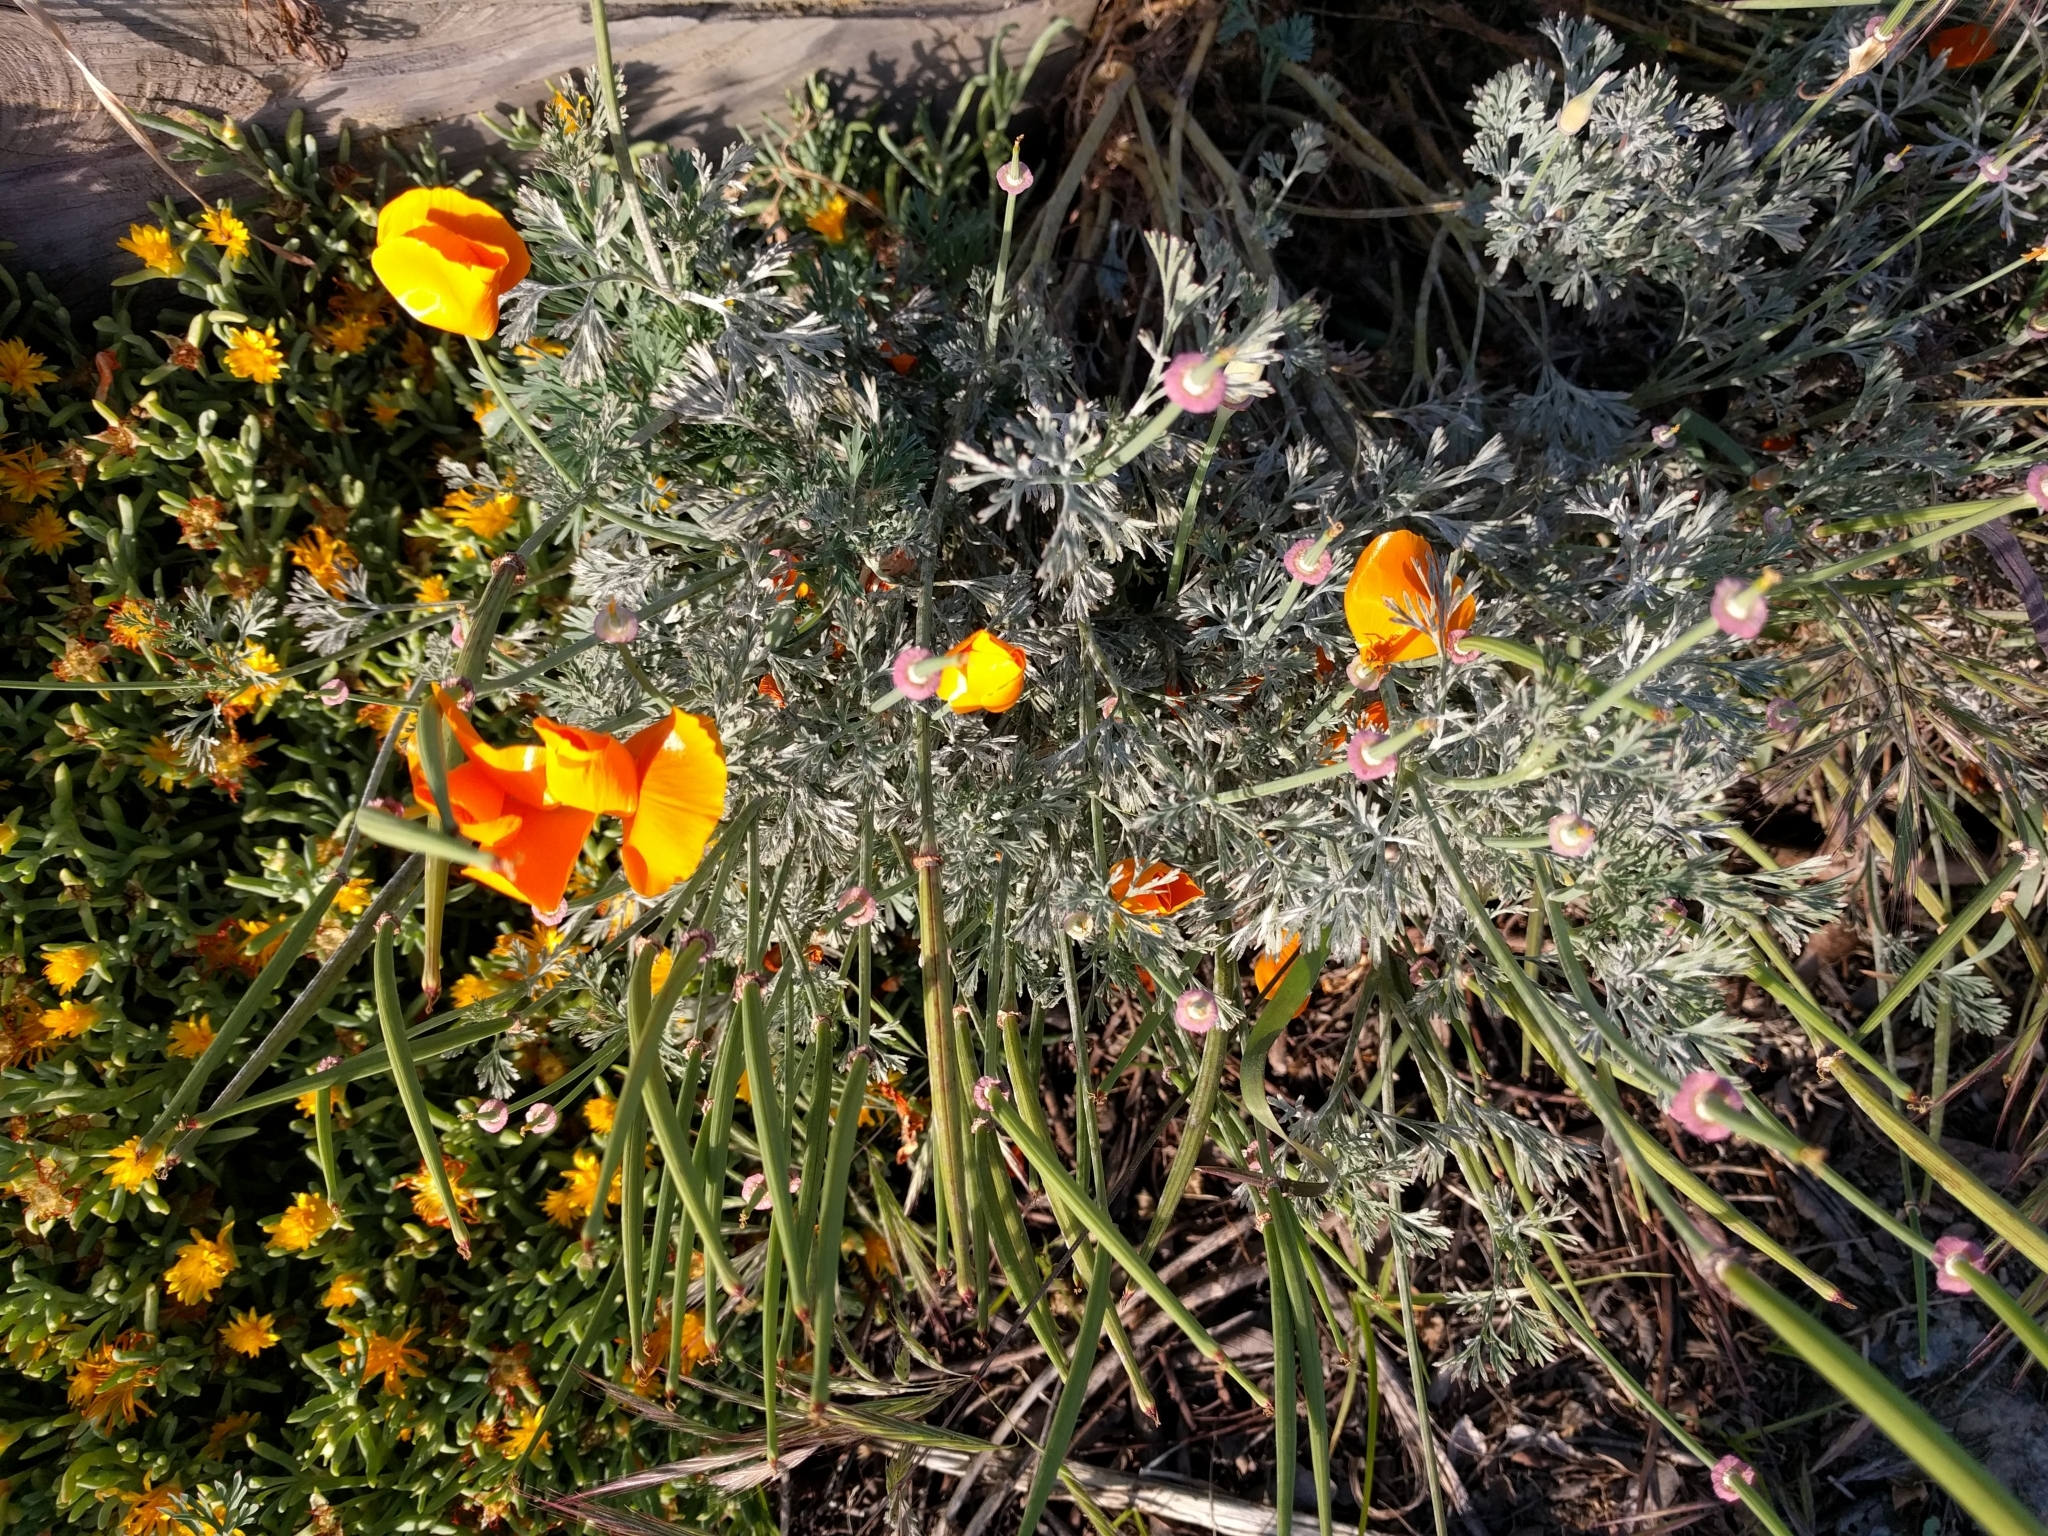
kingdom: Plantae
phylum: Tracheophyta
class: Magnoliopsida
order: Ranunculales
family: Papaveraceae
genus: Eschscholzia
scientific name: Eschscholzia californica
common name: California poppy
